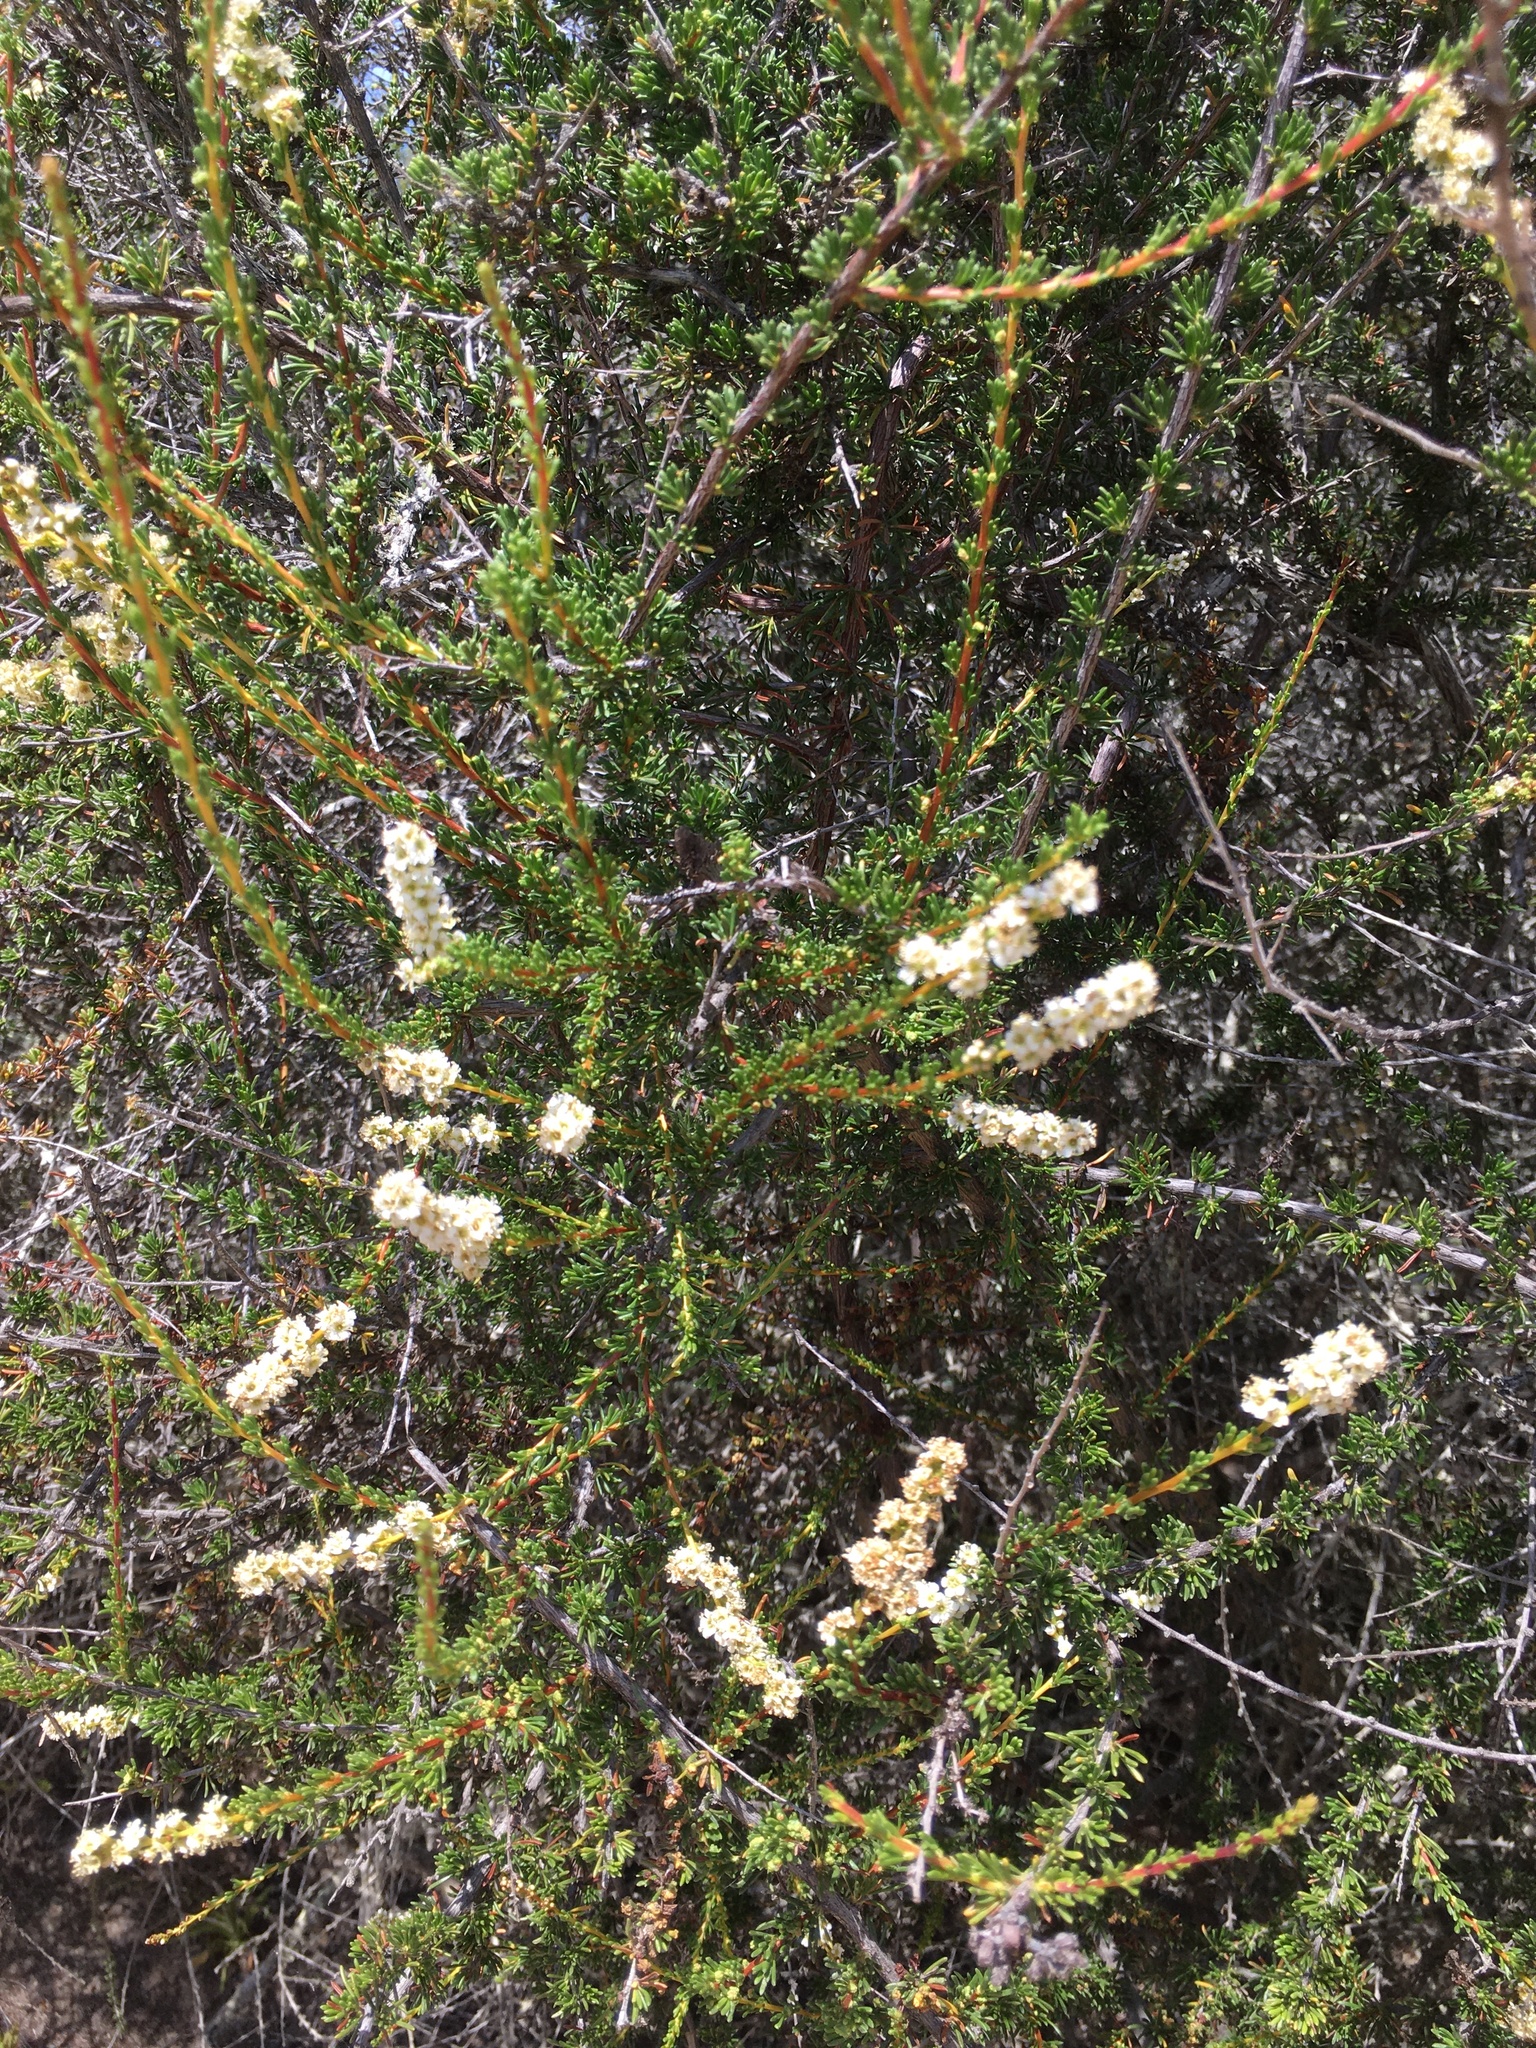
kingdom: Plantae
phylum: Tracheophyta
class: Magnoliopsida
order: Rosales
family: Rosaceae
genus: Adenostoma
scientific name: Adenostoma fasciculatum
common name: Chamise
